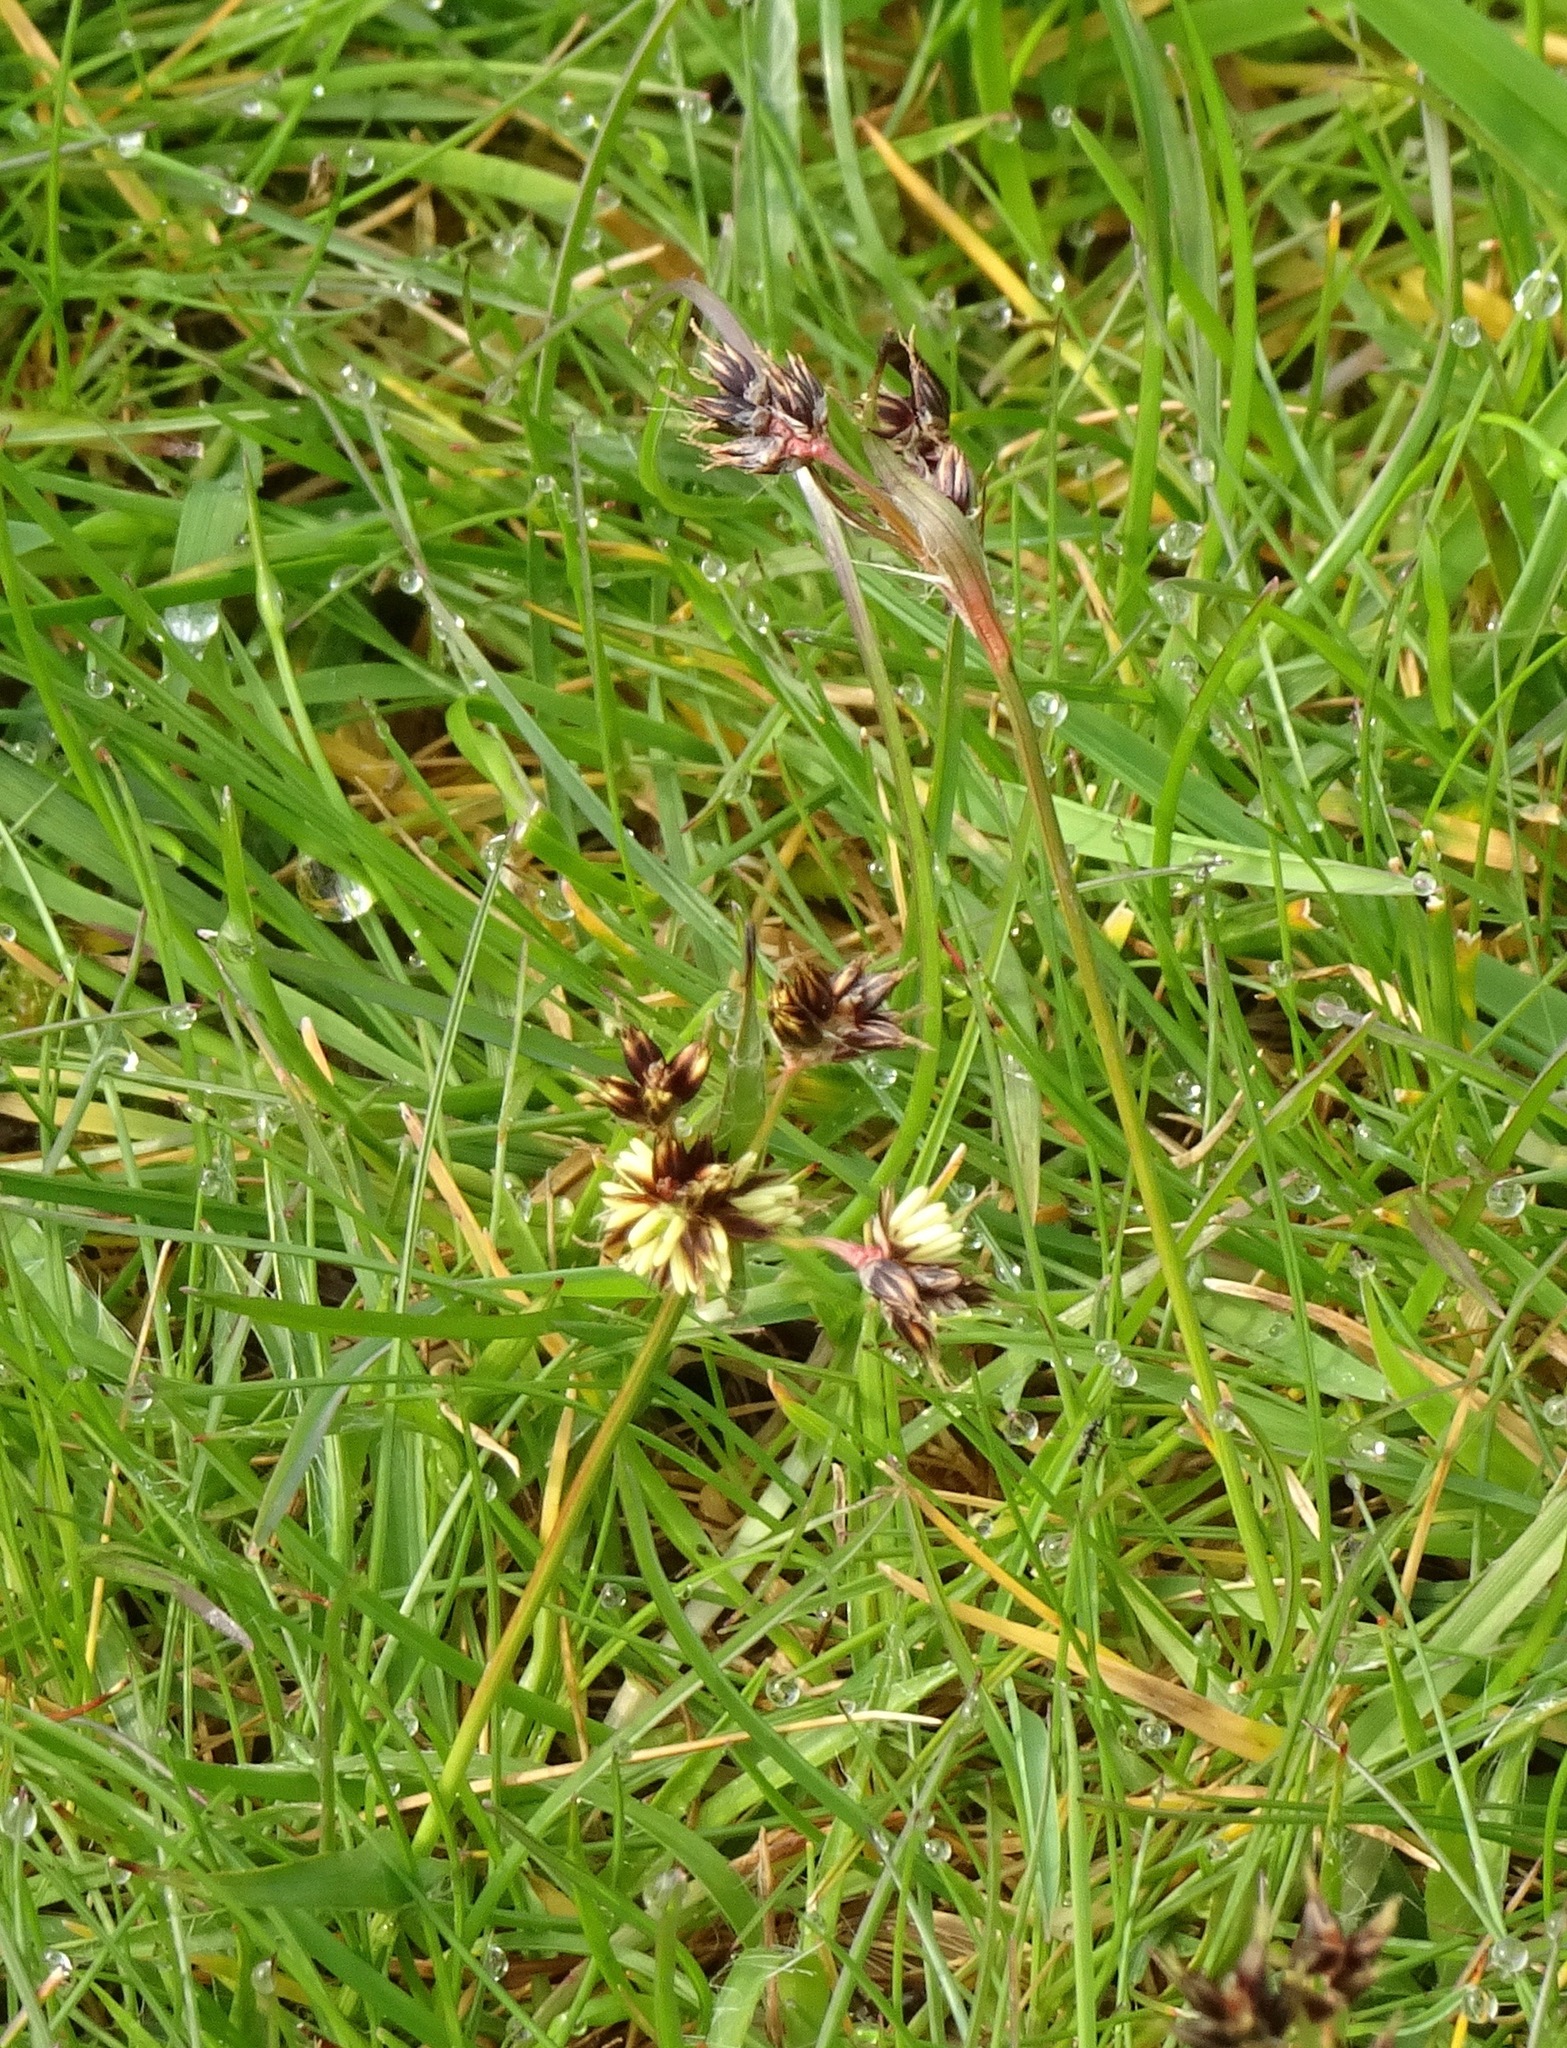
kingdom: Plantae
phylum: Tracheophyta
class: Liliopsida
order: Poales
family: Juncaceae
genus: Luzula
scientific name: Luzula campestris
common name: Field wood-rush
